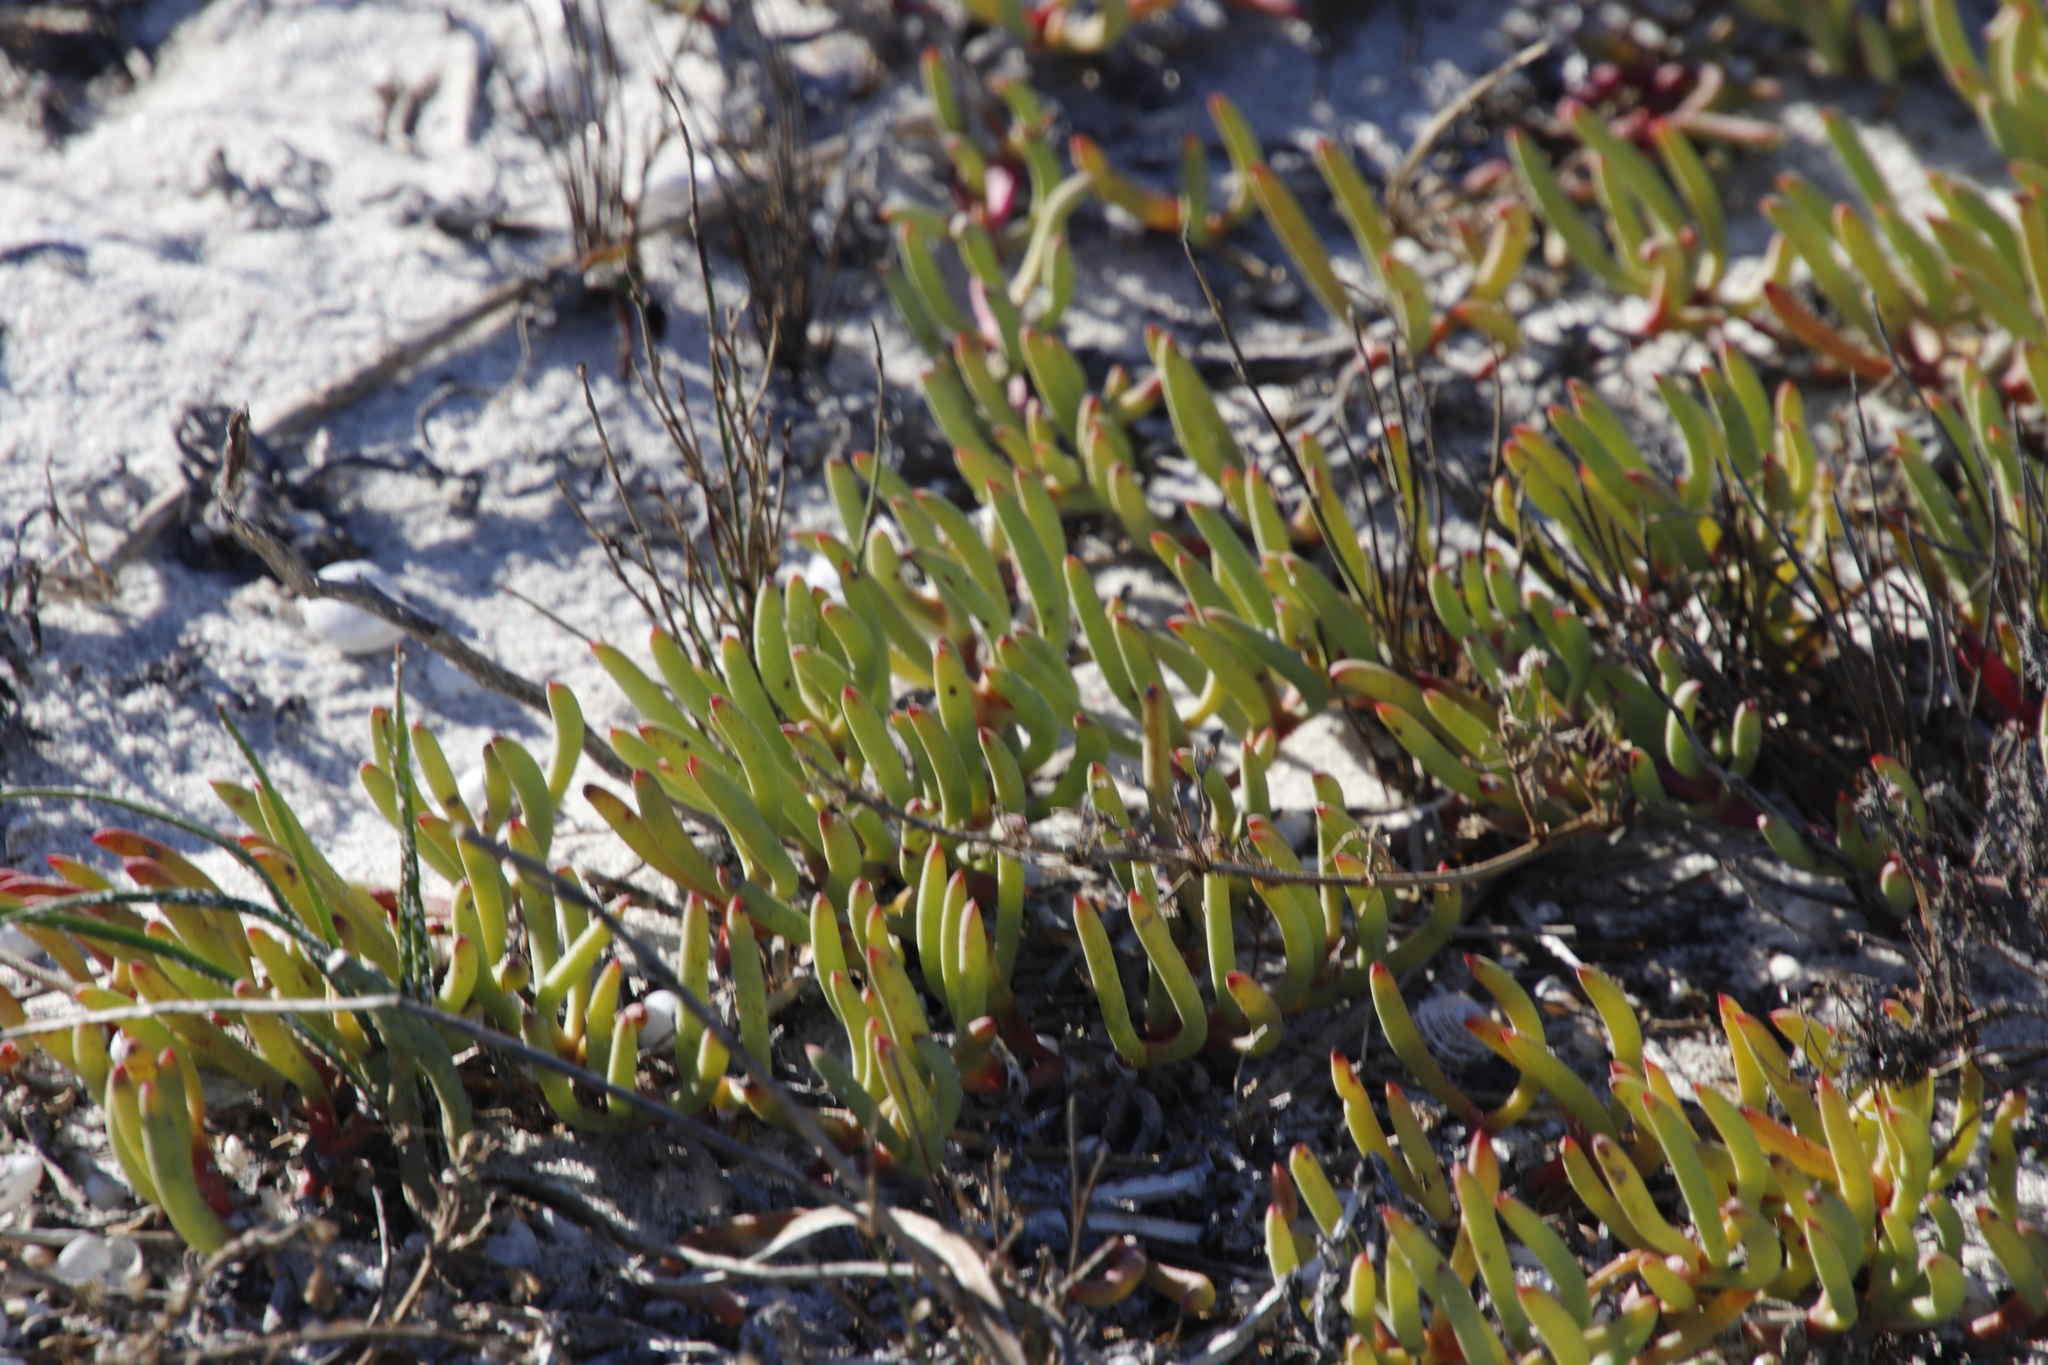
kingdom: Plantae
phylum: Tracheophyta
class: Magnoliopsida
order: Caryophyllales
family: Aizoaceae
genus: Jordaaniella
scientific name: Jordaaniella dubia
